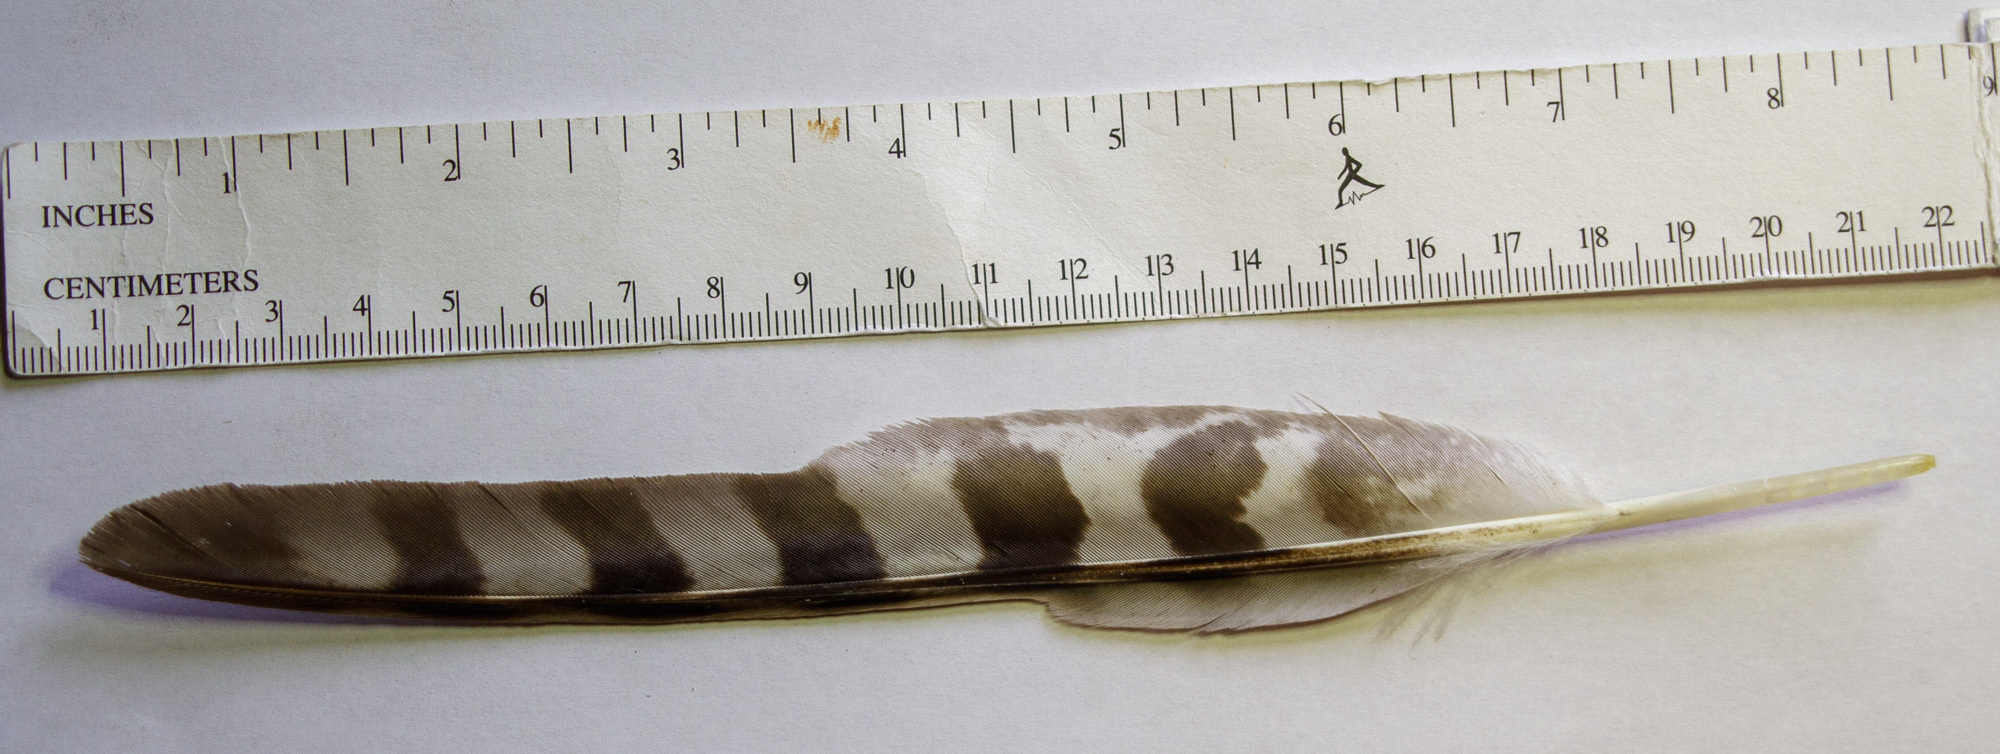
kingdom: Animalia
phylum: Chordata
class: Aves
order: Accipitriformes
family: Accipitridae
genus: Accipiter
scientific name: Accipiter cooperii
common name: Cooper's hawk
